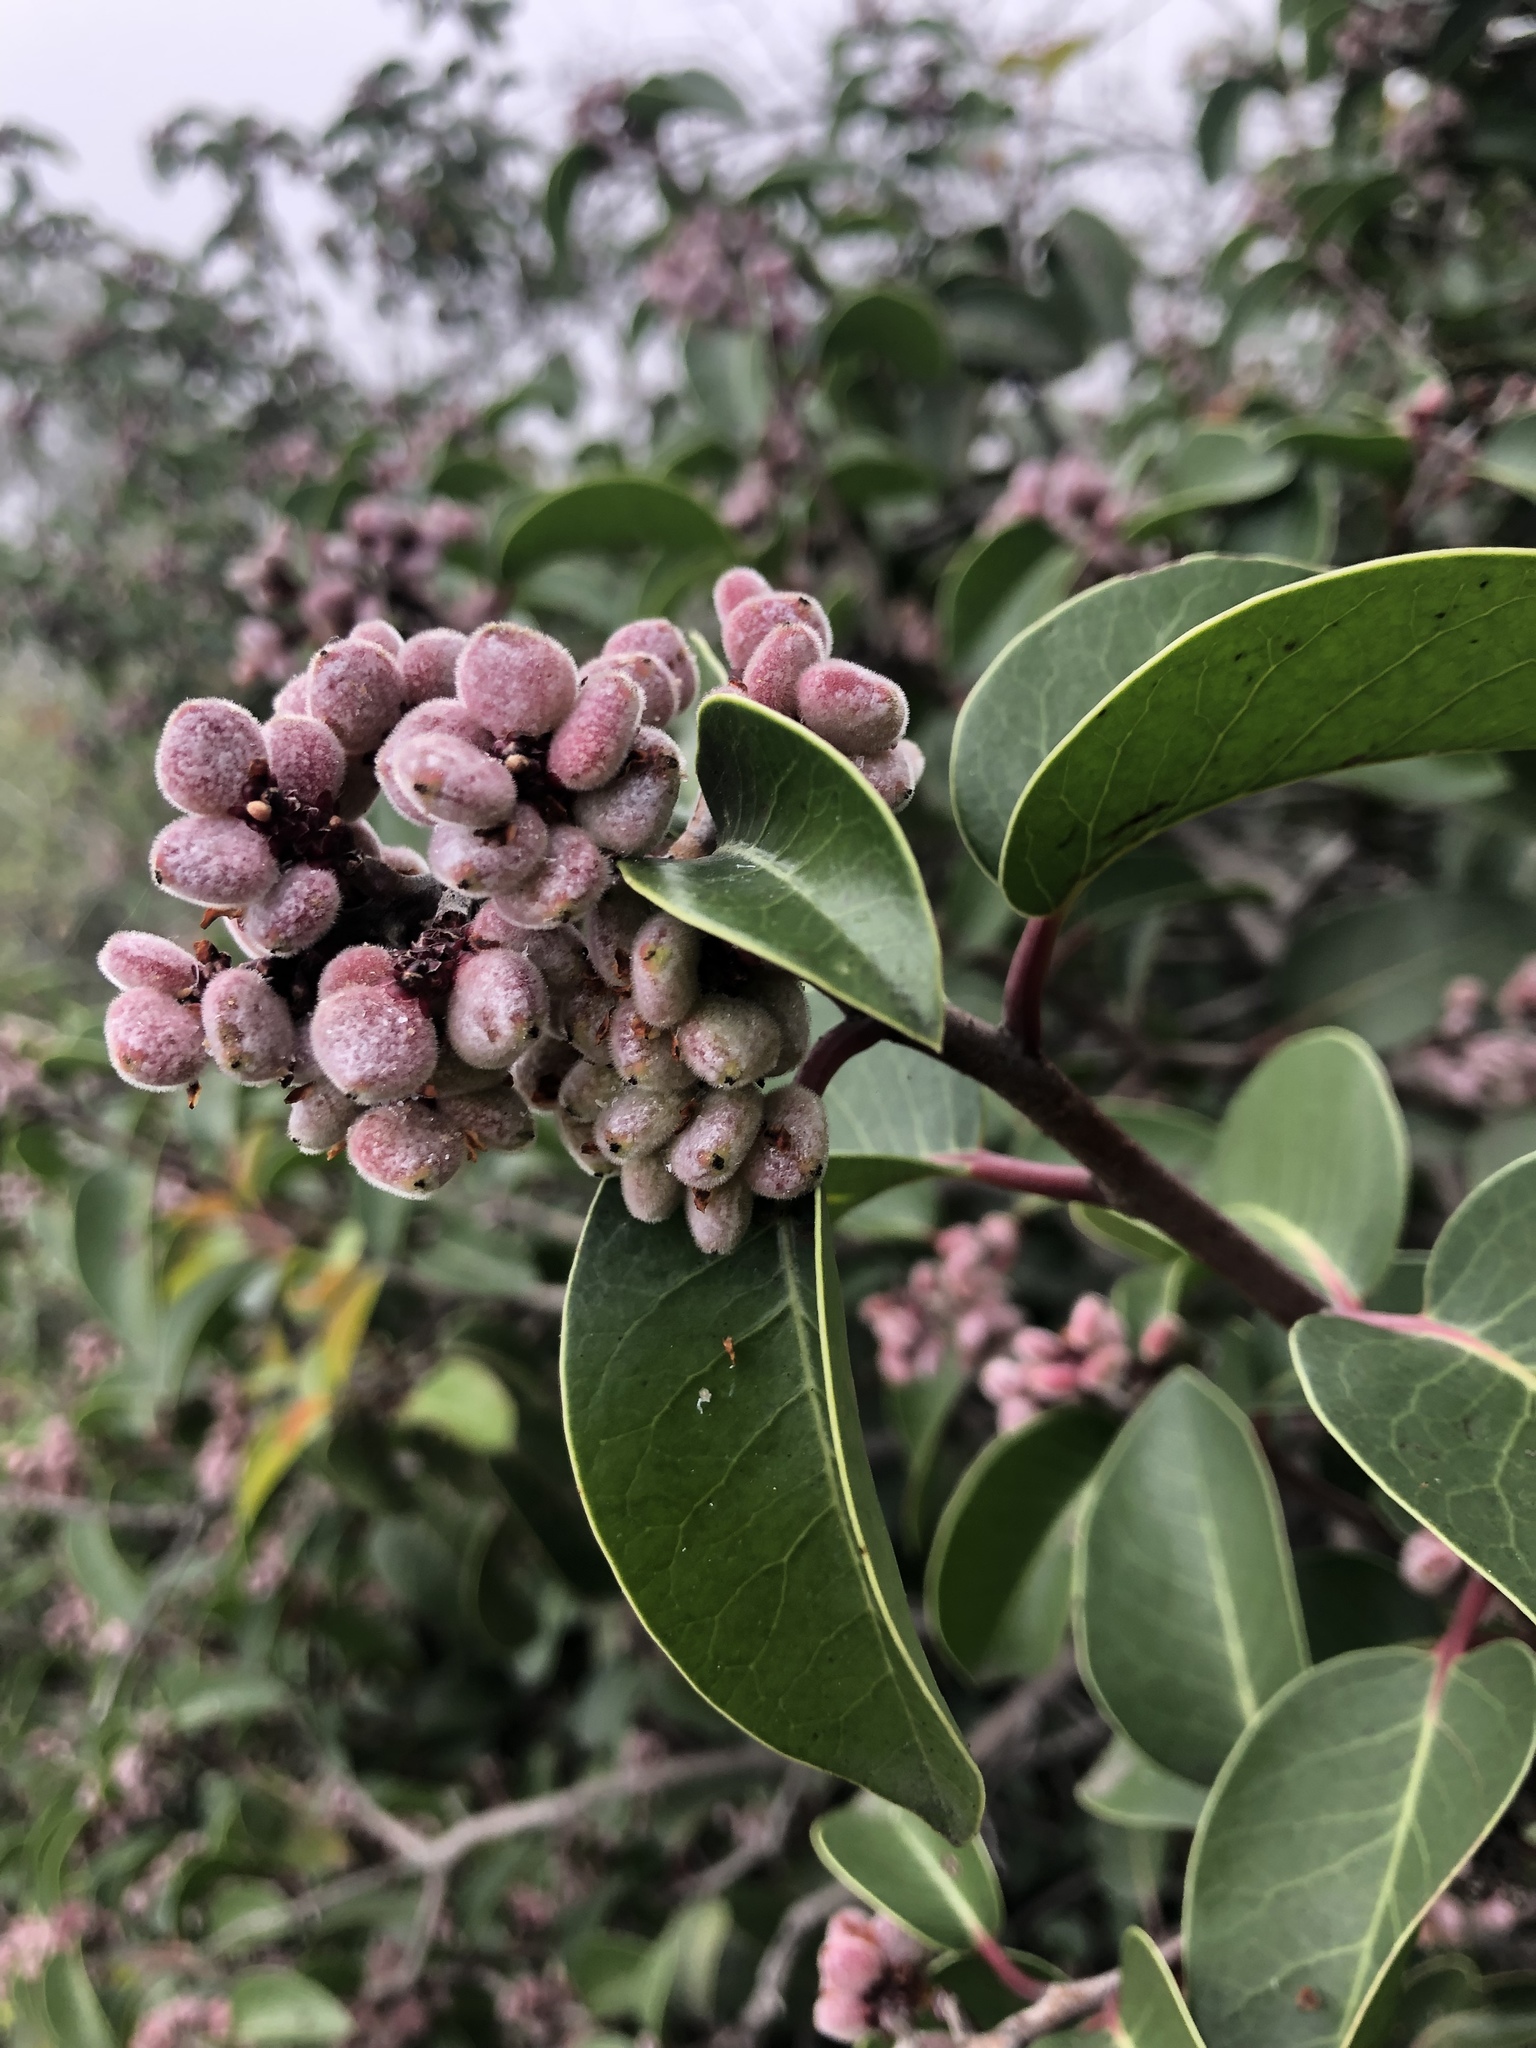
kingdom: Plantae
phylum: Tracheophyta
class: Magnoliopsida
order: Sapindales
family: Anacardiaceae
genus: Rhus
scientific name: Rhus ovata
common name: Sugar sumac
